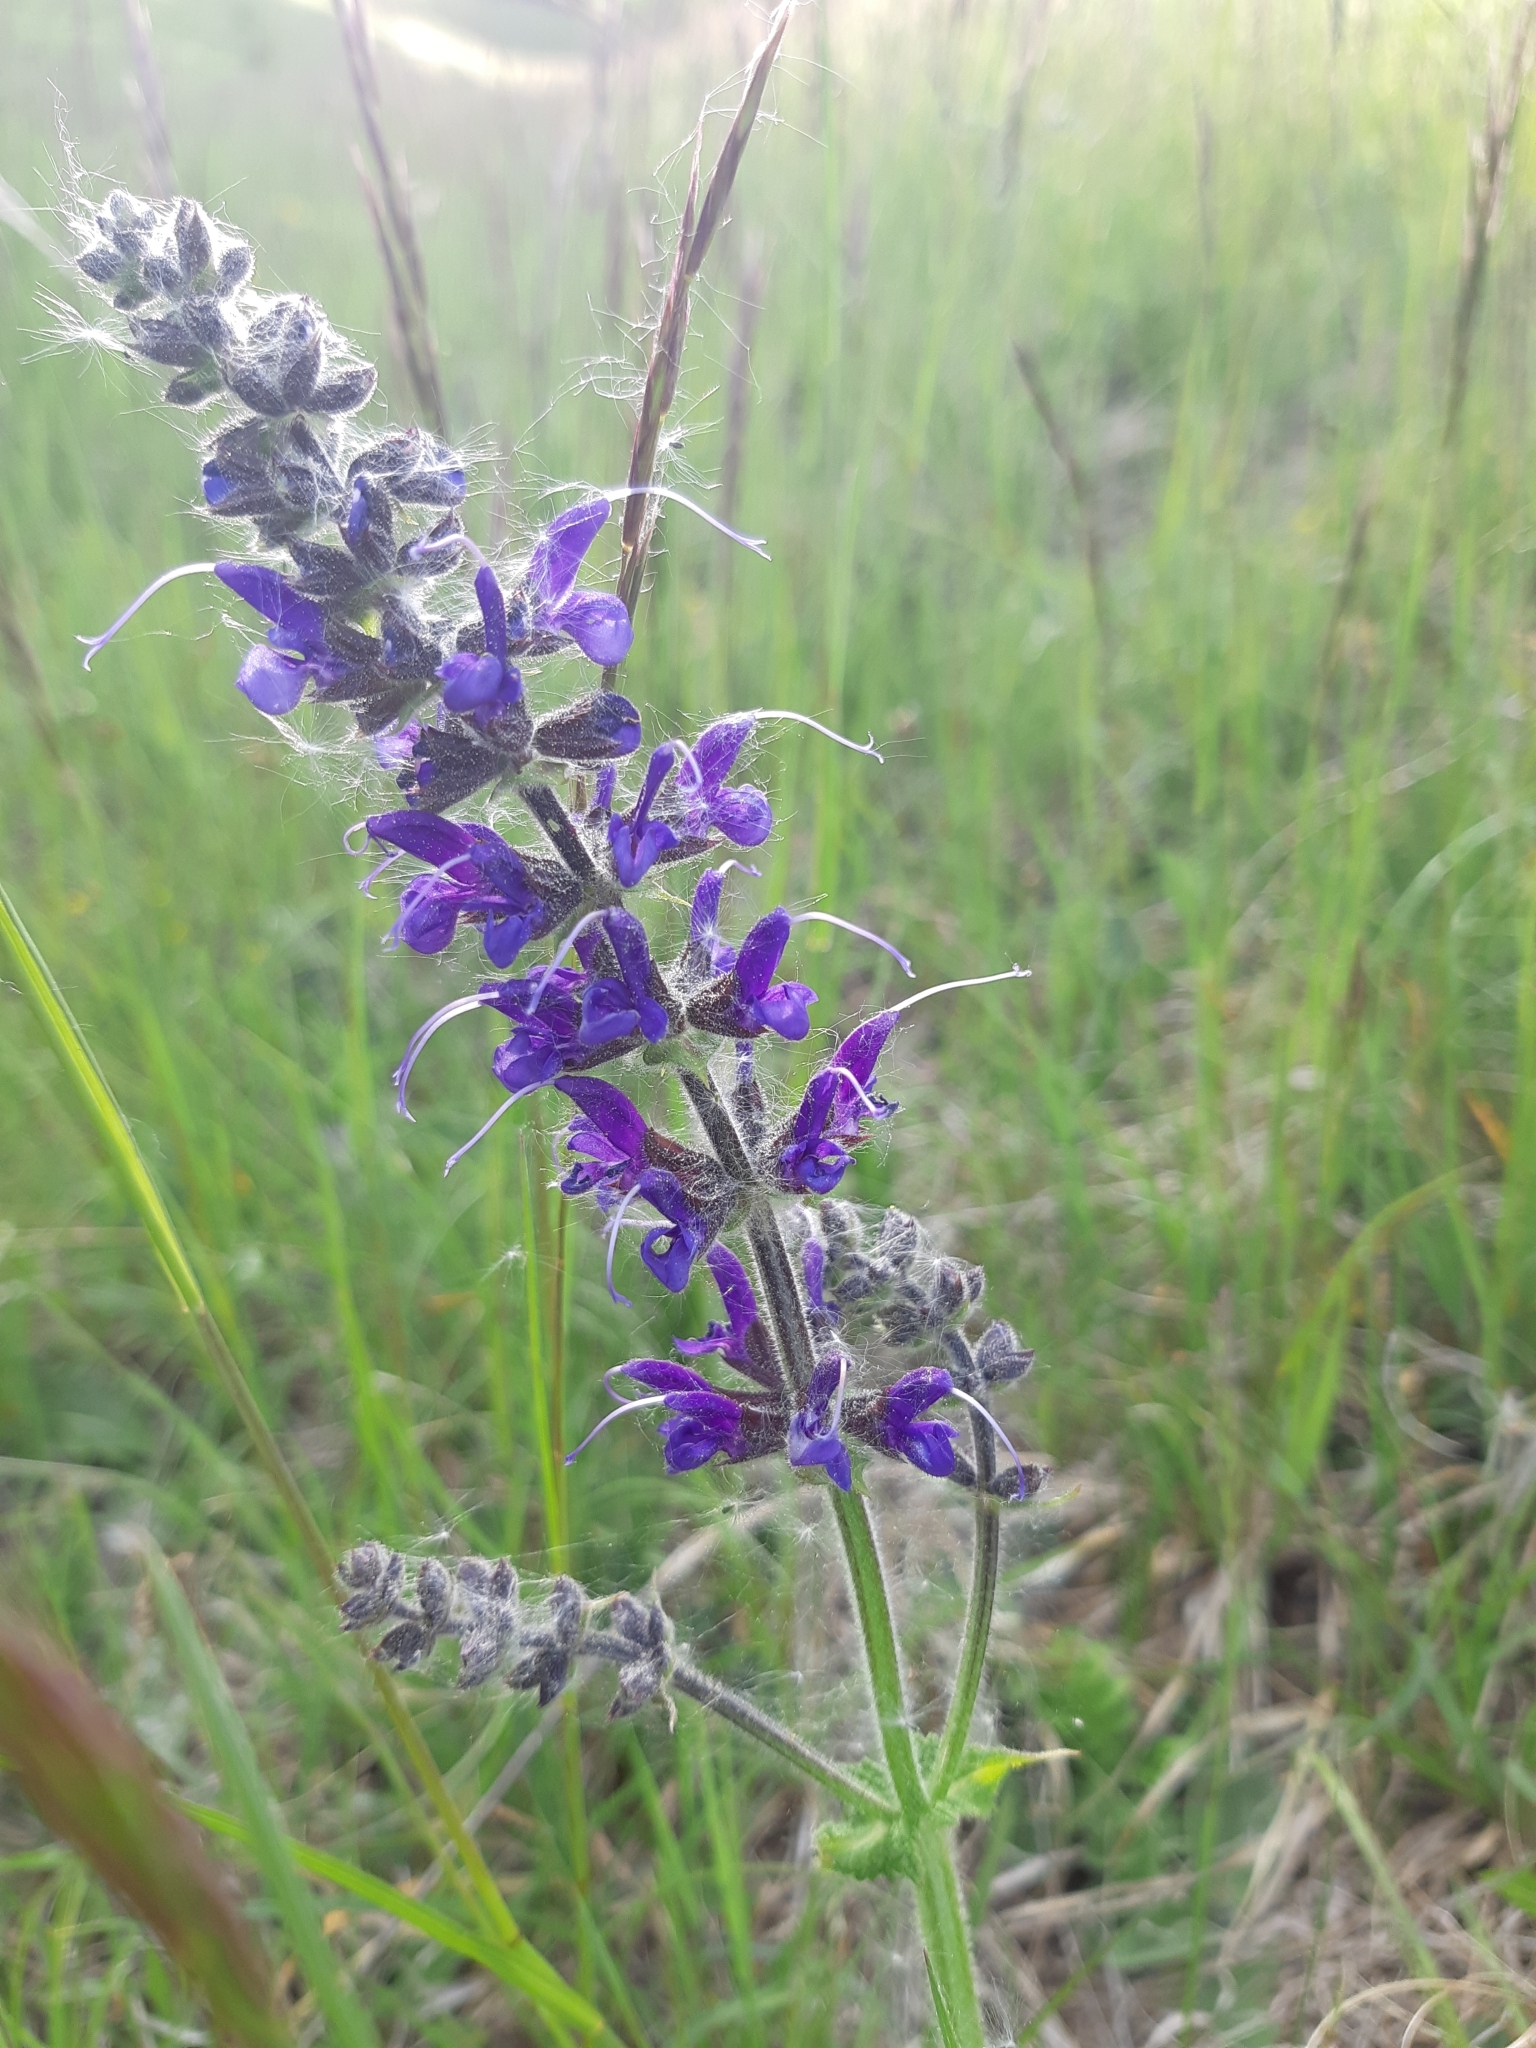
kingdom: Plantae
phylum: Tracheophyta
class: Magnoliopsida
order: Lamiales
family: Lamiaceae
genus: Salvia
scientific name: Salvia pratensis
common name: Meadow sage
